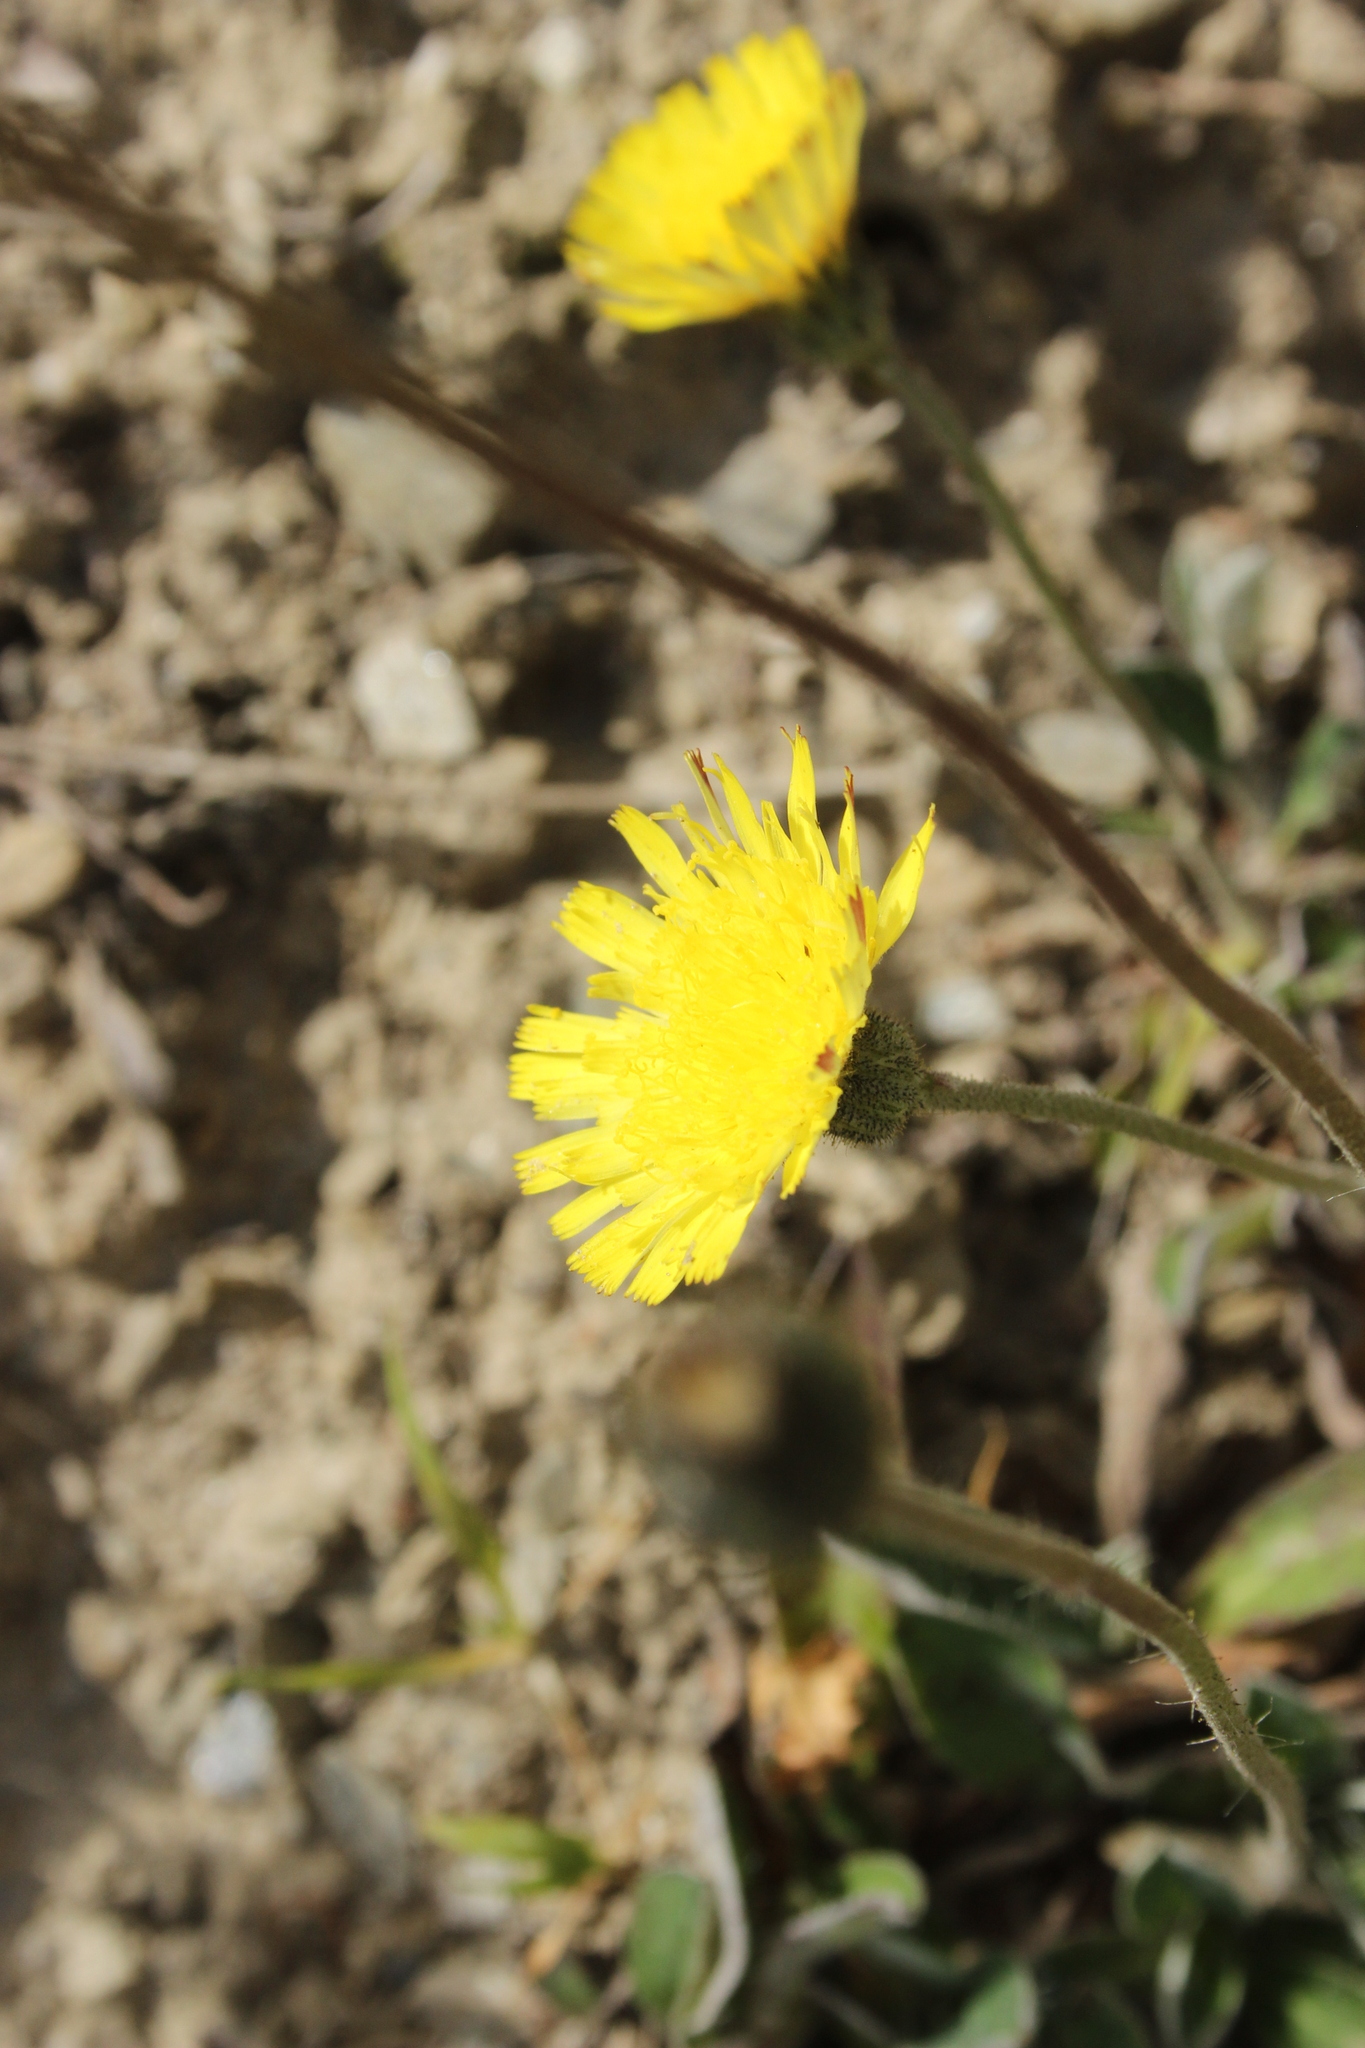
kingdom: Plantae
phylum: Tracheophyta
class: Magnoliopsida
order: Asterales
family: Asteraceae
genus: Pilosella
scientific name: Pilosella officinarum
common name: Mouse-ear hawkweed
